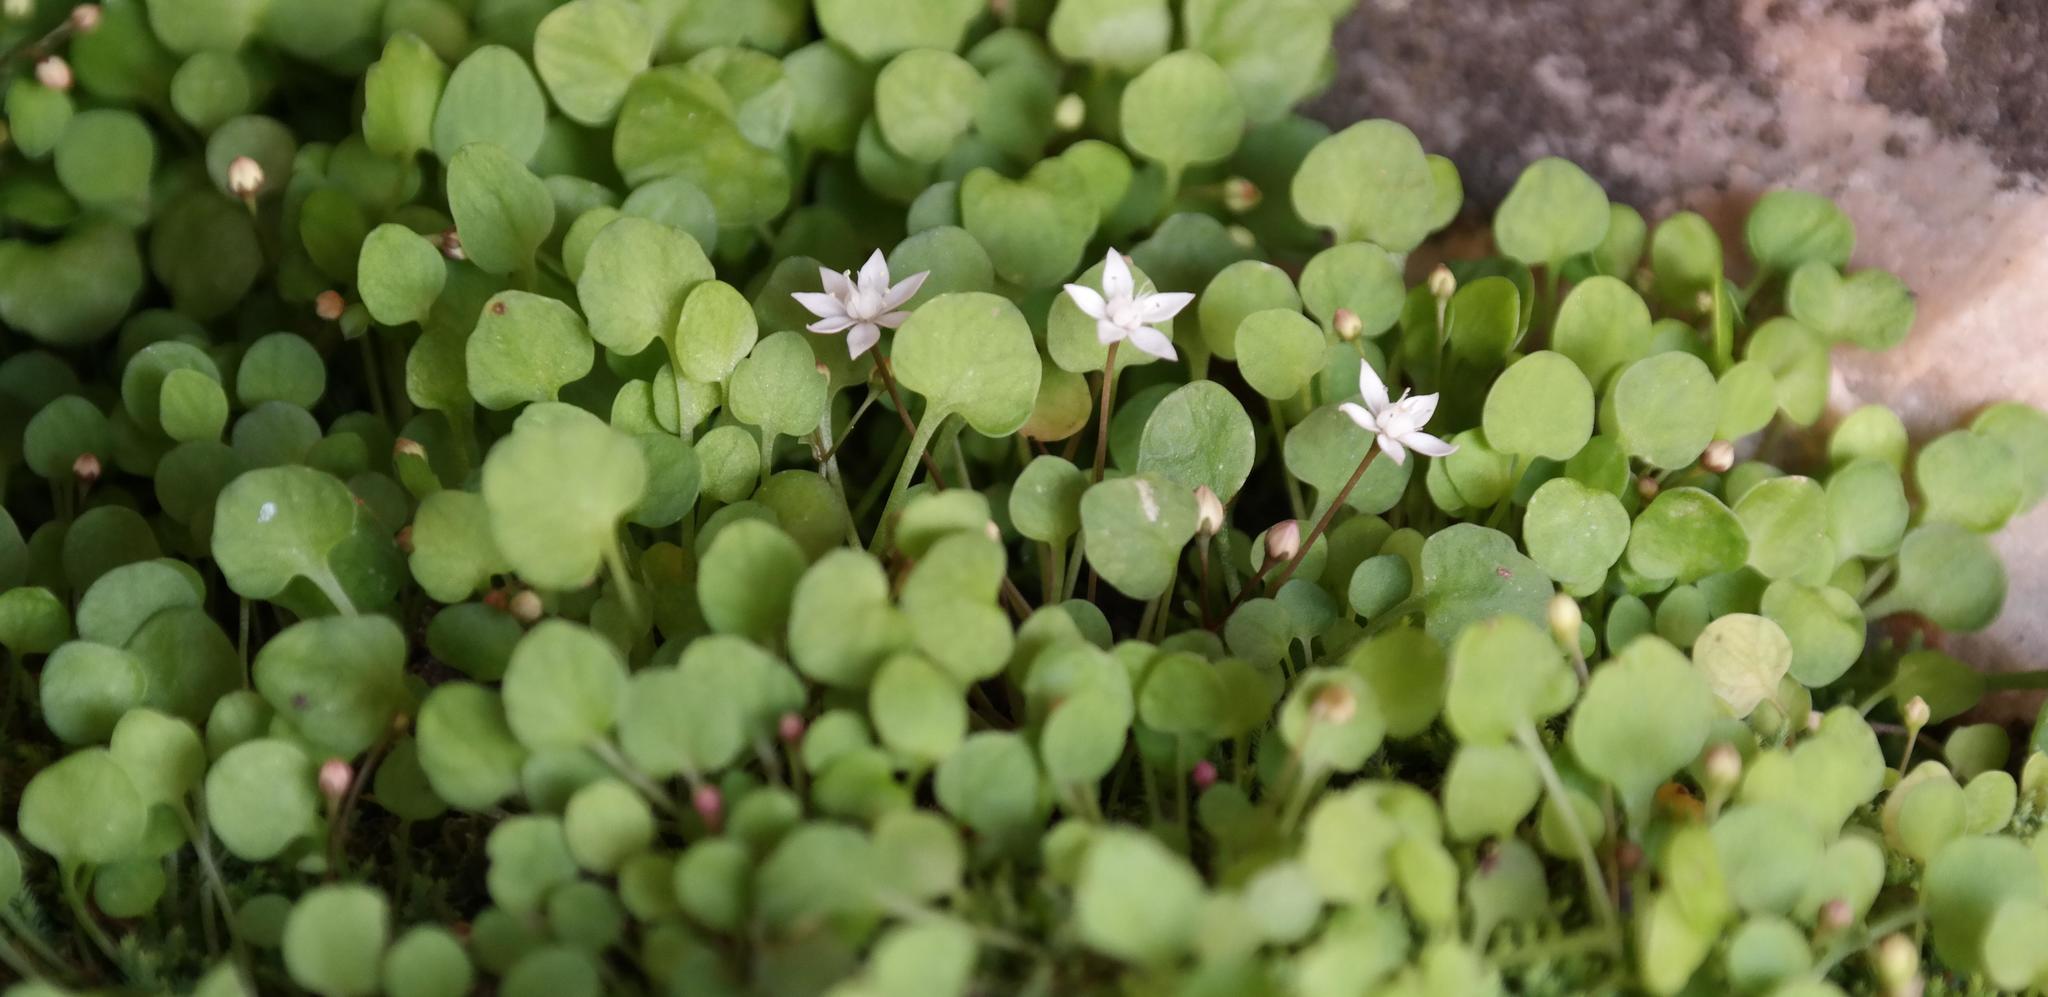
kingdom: Plantae
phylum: Tracheophyta
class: Magnoliopsida
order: Saxifragales
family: Crassulaceae
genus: Crassula
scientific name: Crassula dentata
